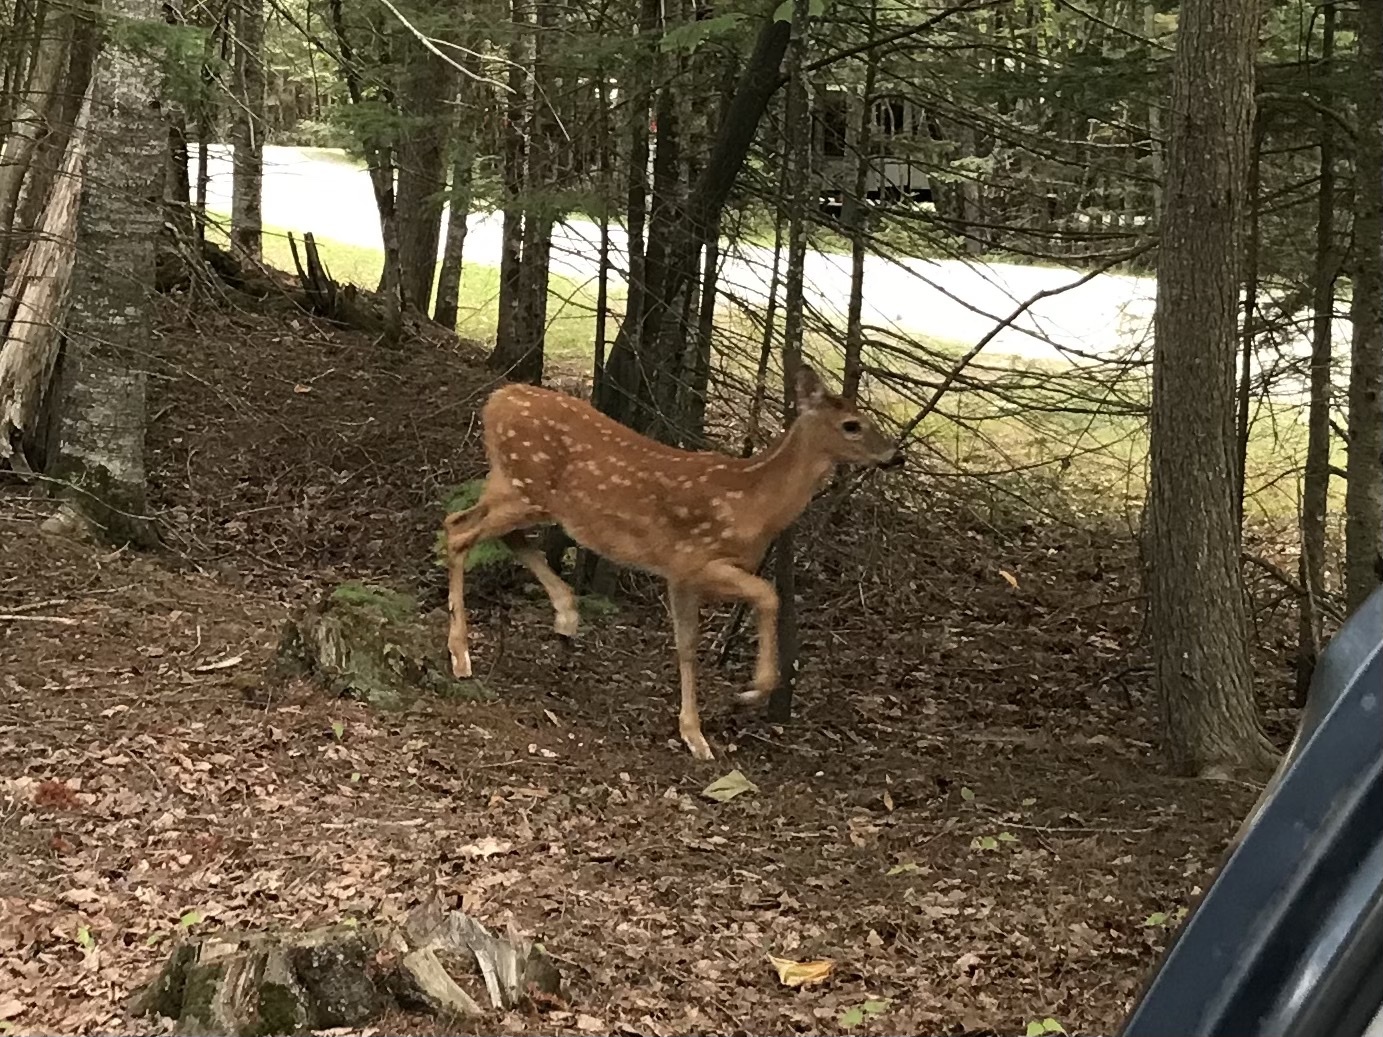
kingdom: Animalia
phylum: Chordata
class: Mammalia
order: Artiodactyla
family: Cervidae
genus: Odocoileus
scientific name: Odocoileus virginianus
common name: White-tailed deer
